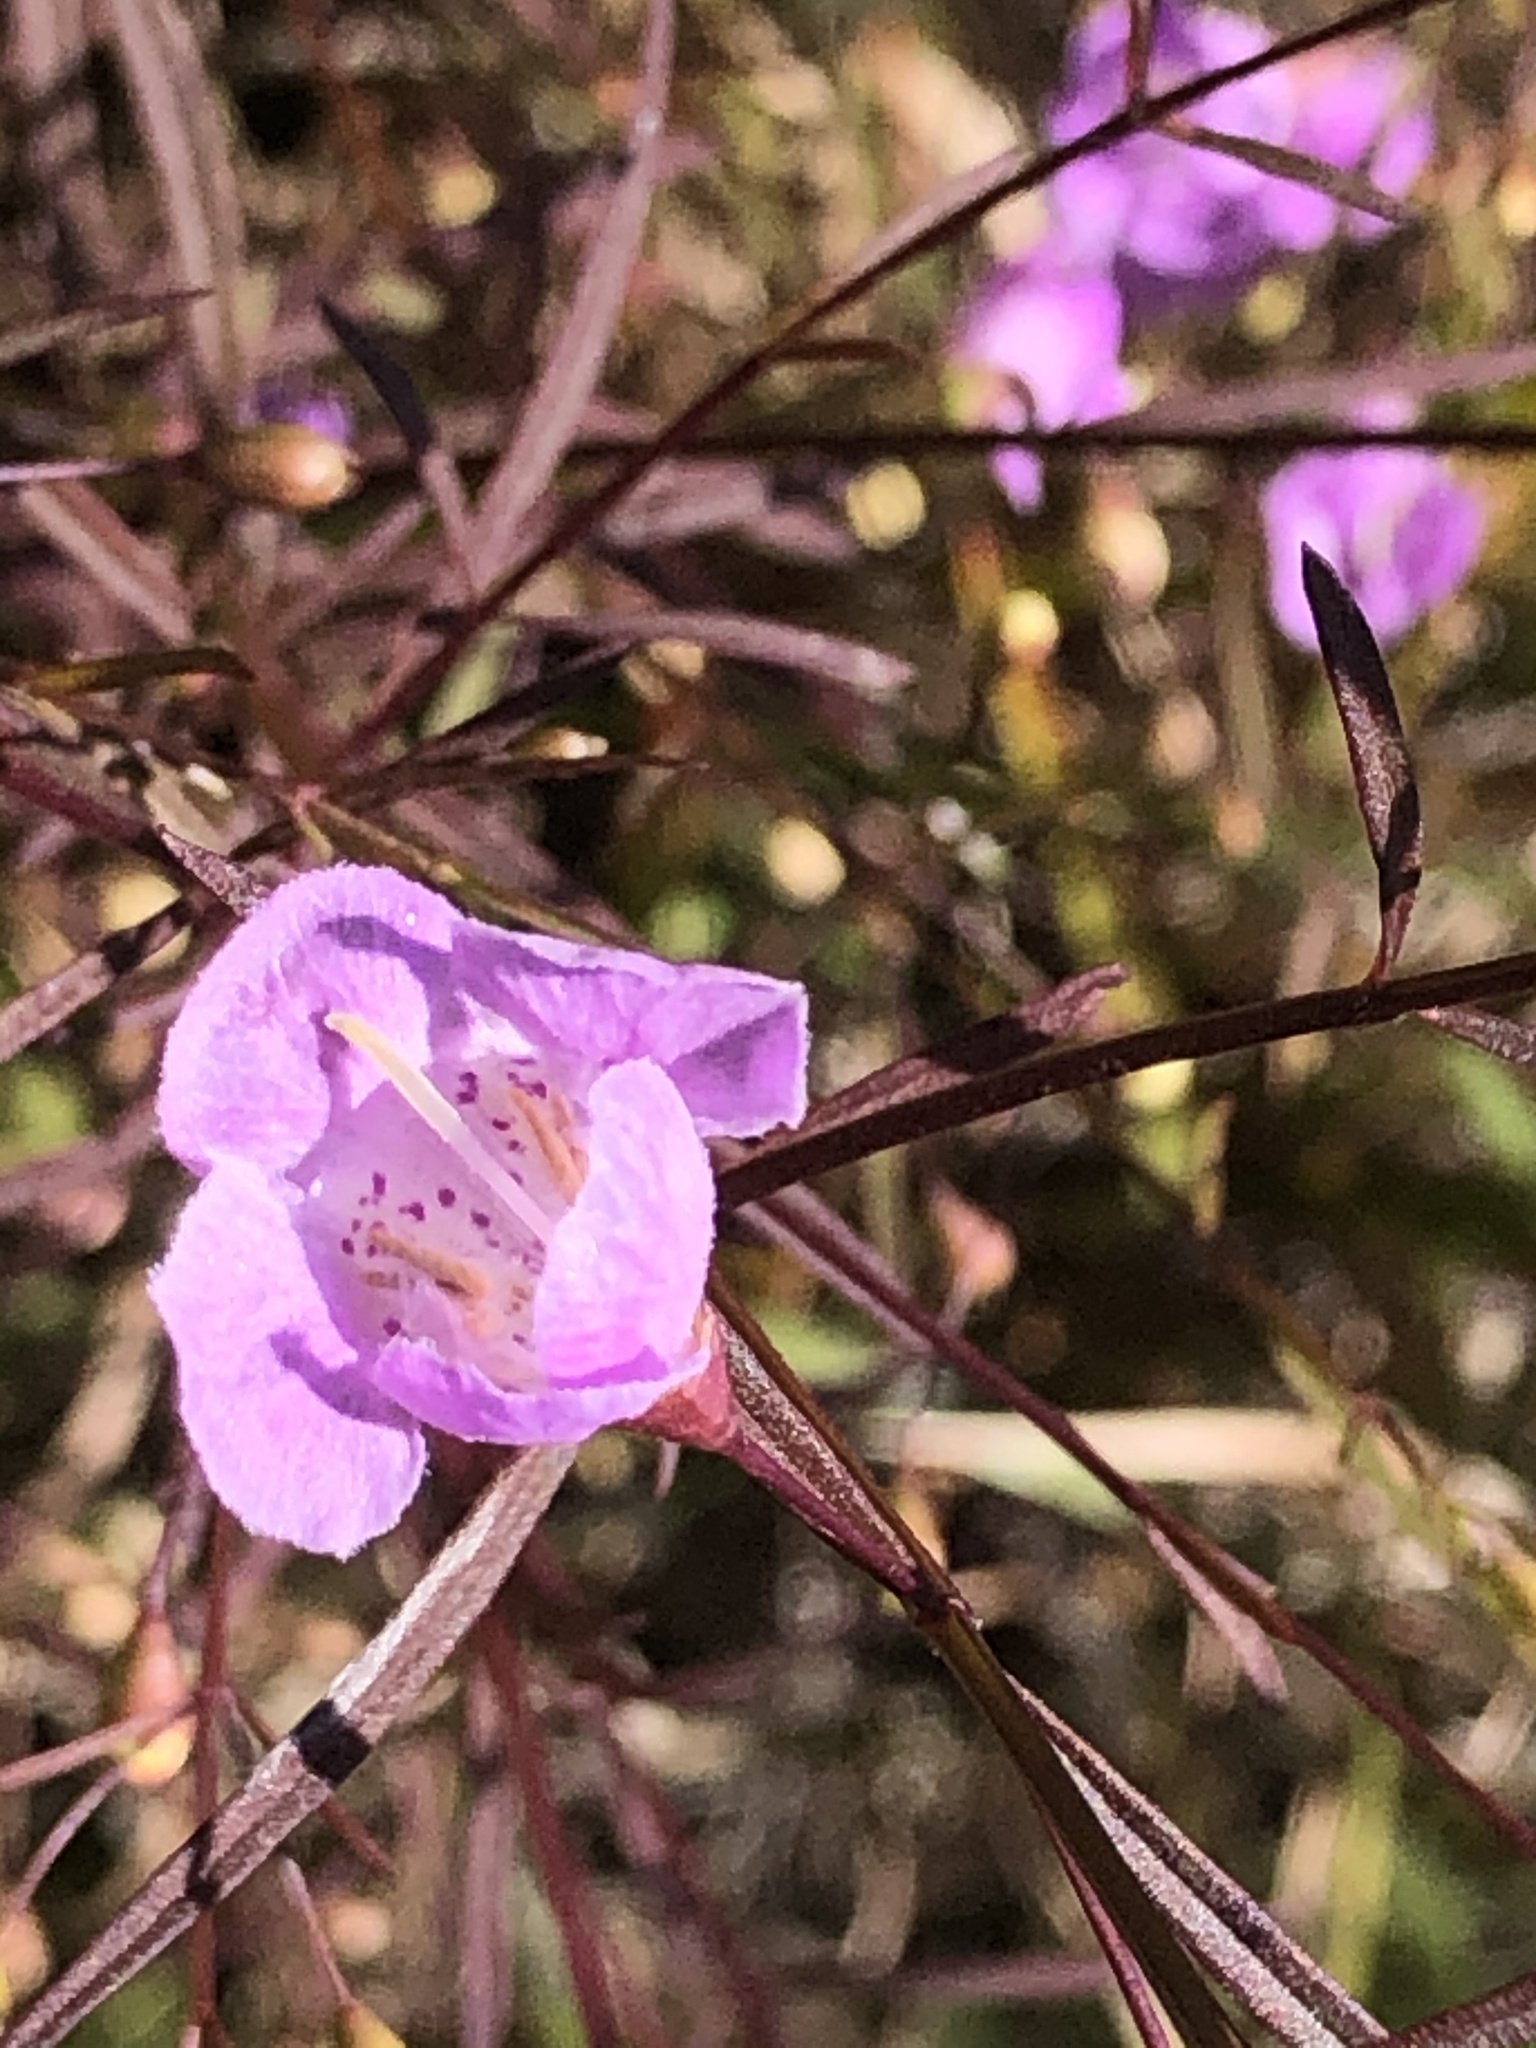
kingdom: Plantae
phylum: Tracheophyta
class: Magnoliopsida
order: Lamiales
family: Orobanchaceae
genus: Agalinis
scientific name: Agalinis tenuifolia
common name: Slender agalinis
